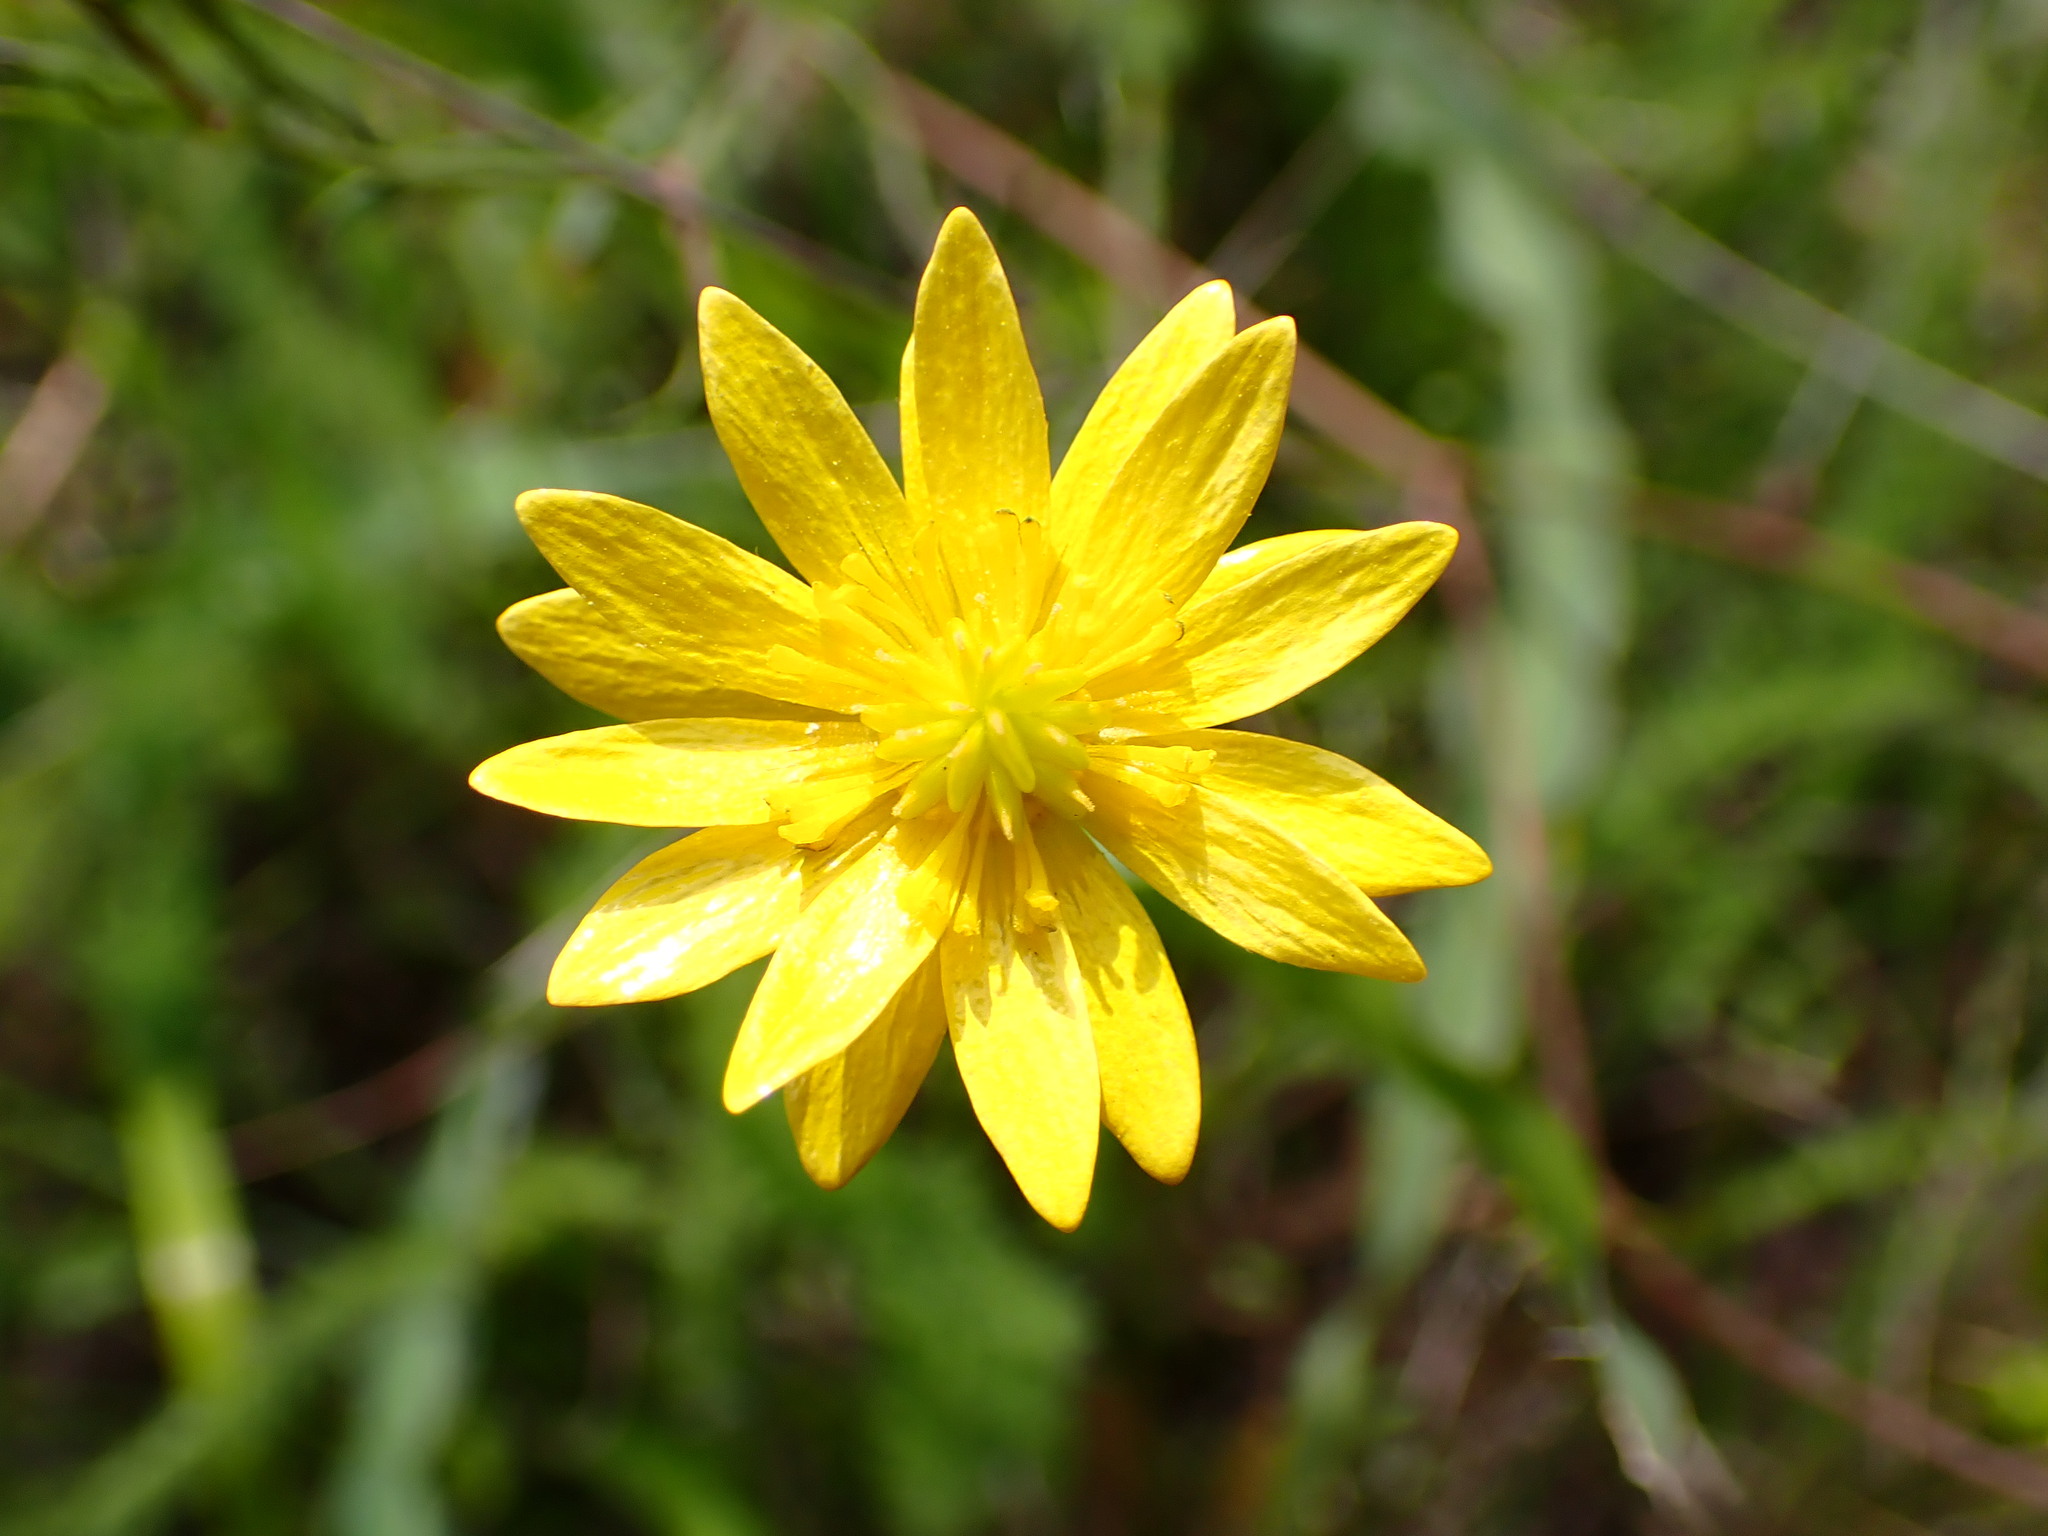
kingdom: Plantae
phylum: Tracheophyta
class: Magnoliopsida
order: Ranunculales
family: Ranunculaceae
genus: Ranunculus
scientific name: Ranunculus californicus
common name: California buttercup
